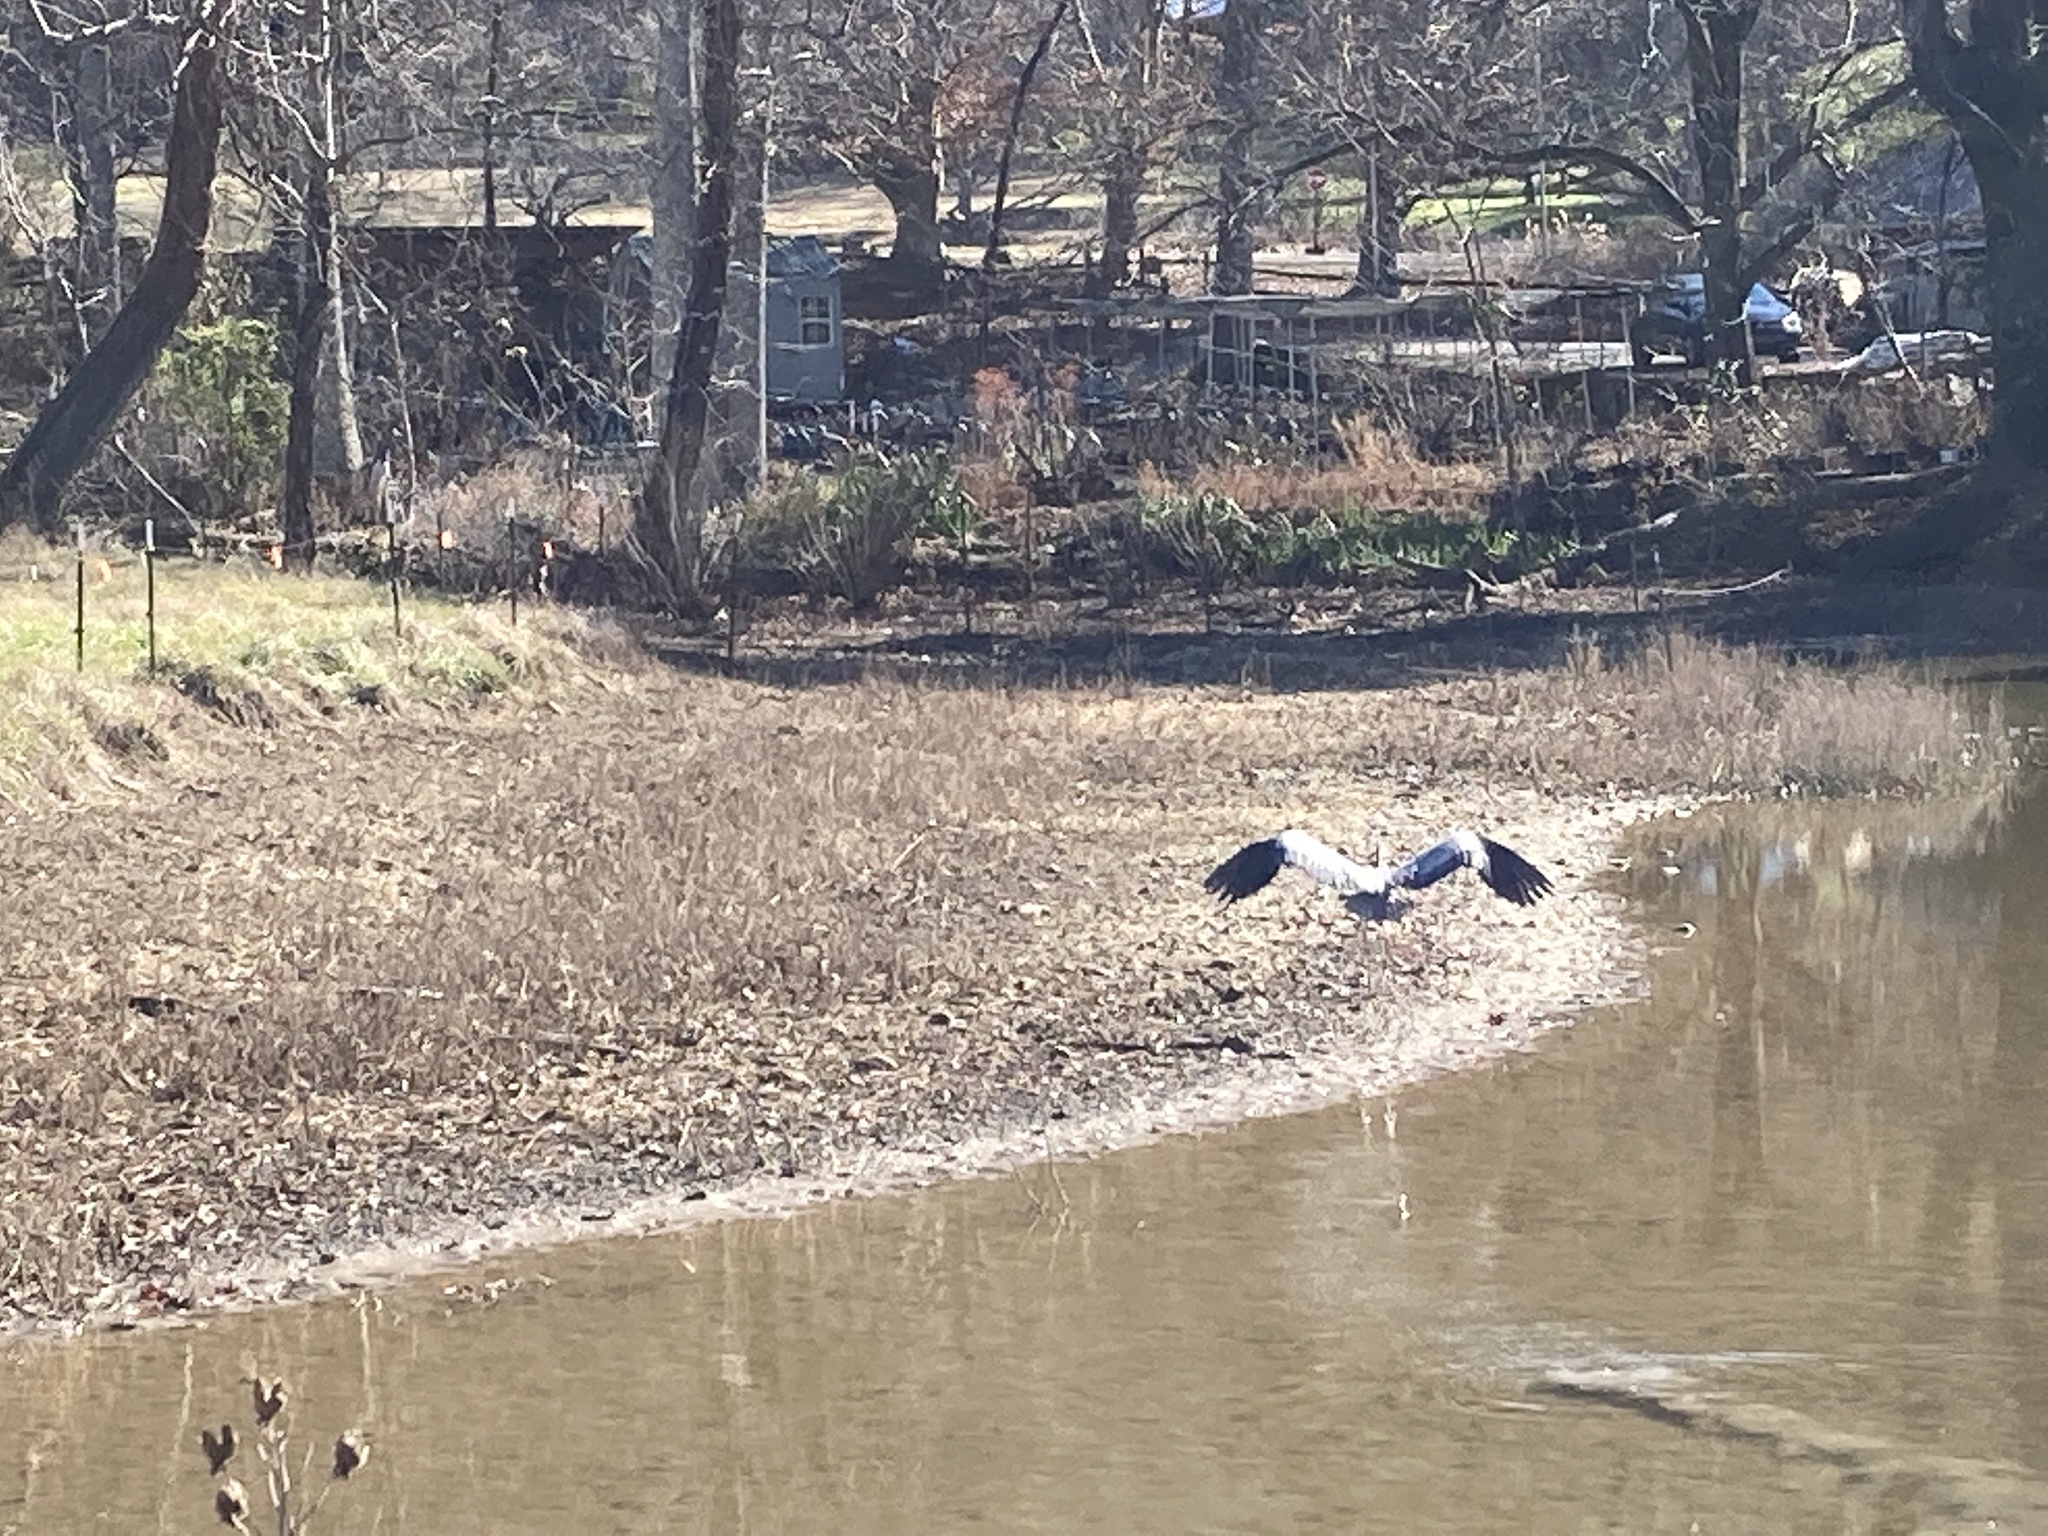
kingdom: Animalia
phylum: Chordata
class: Aves
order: Pelecaniformes
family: Ardeidae
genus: Ardea
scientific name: Ardea herodias
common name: Great blue heron
